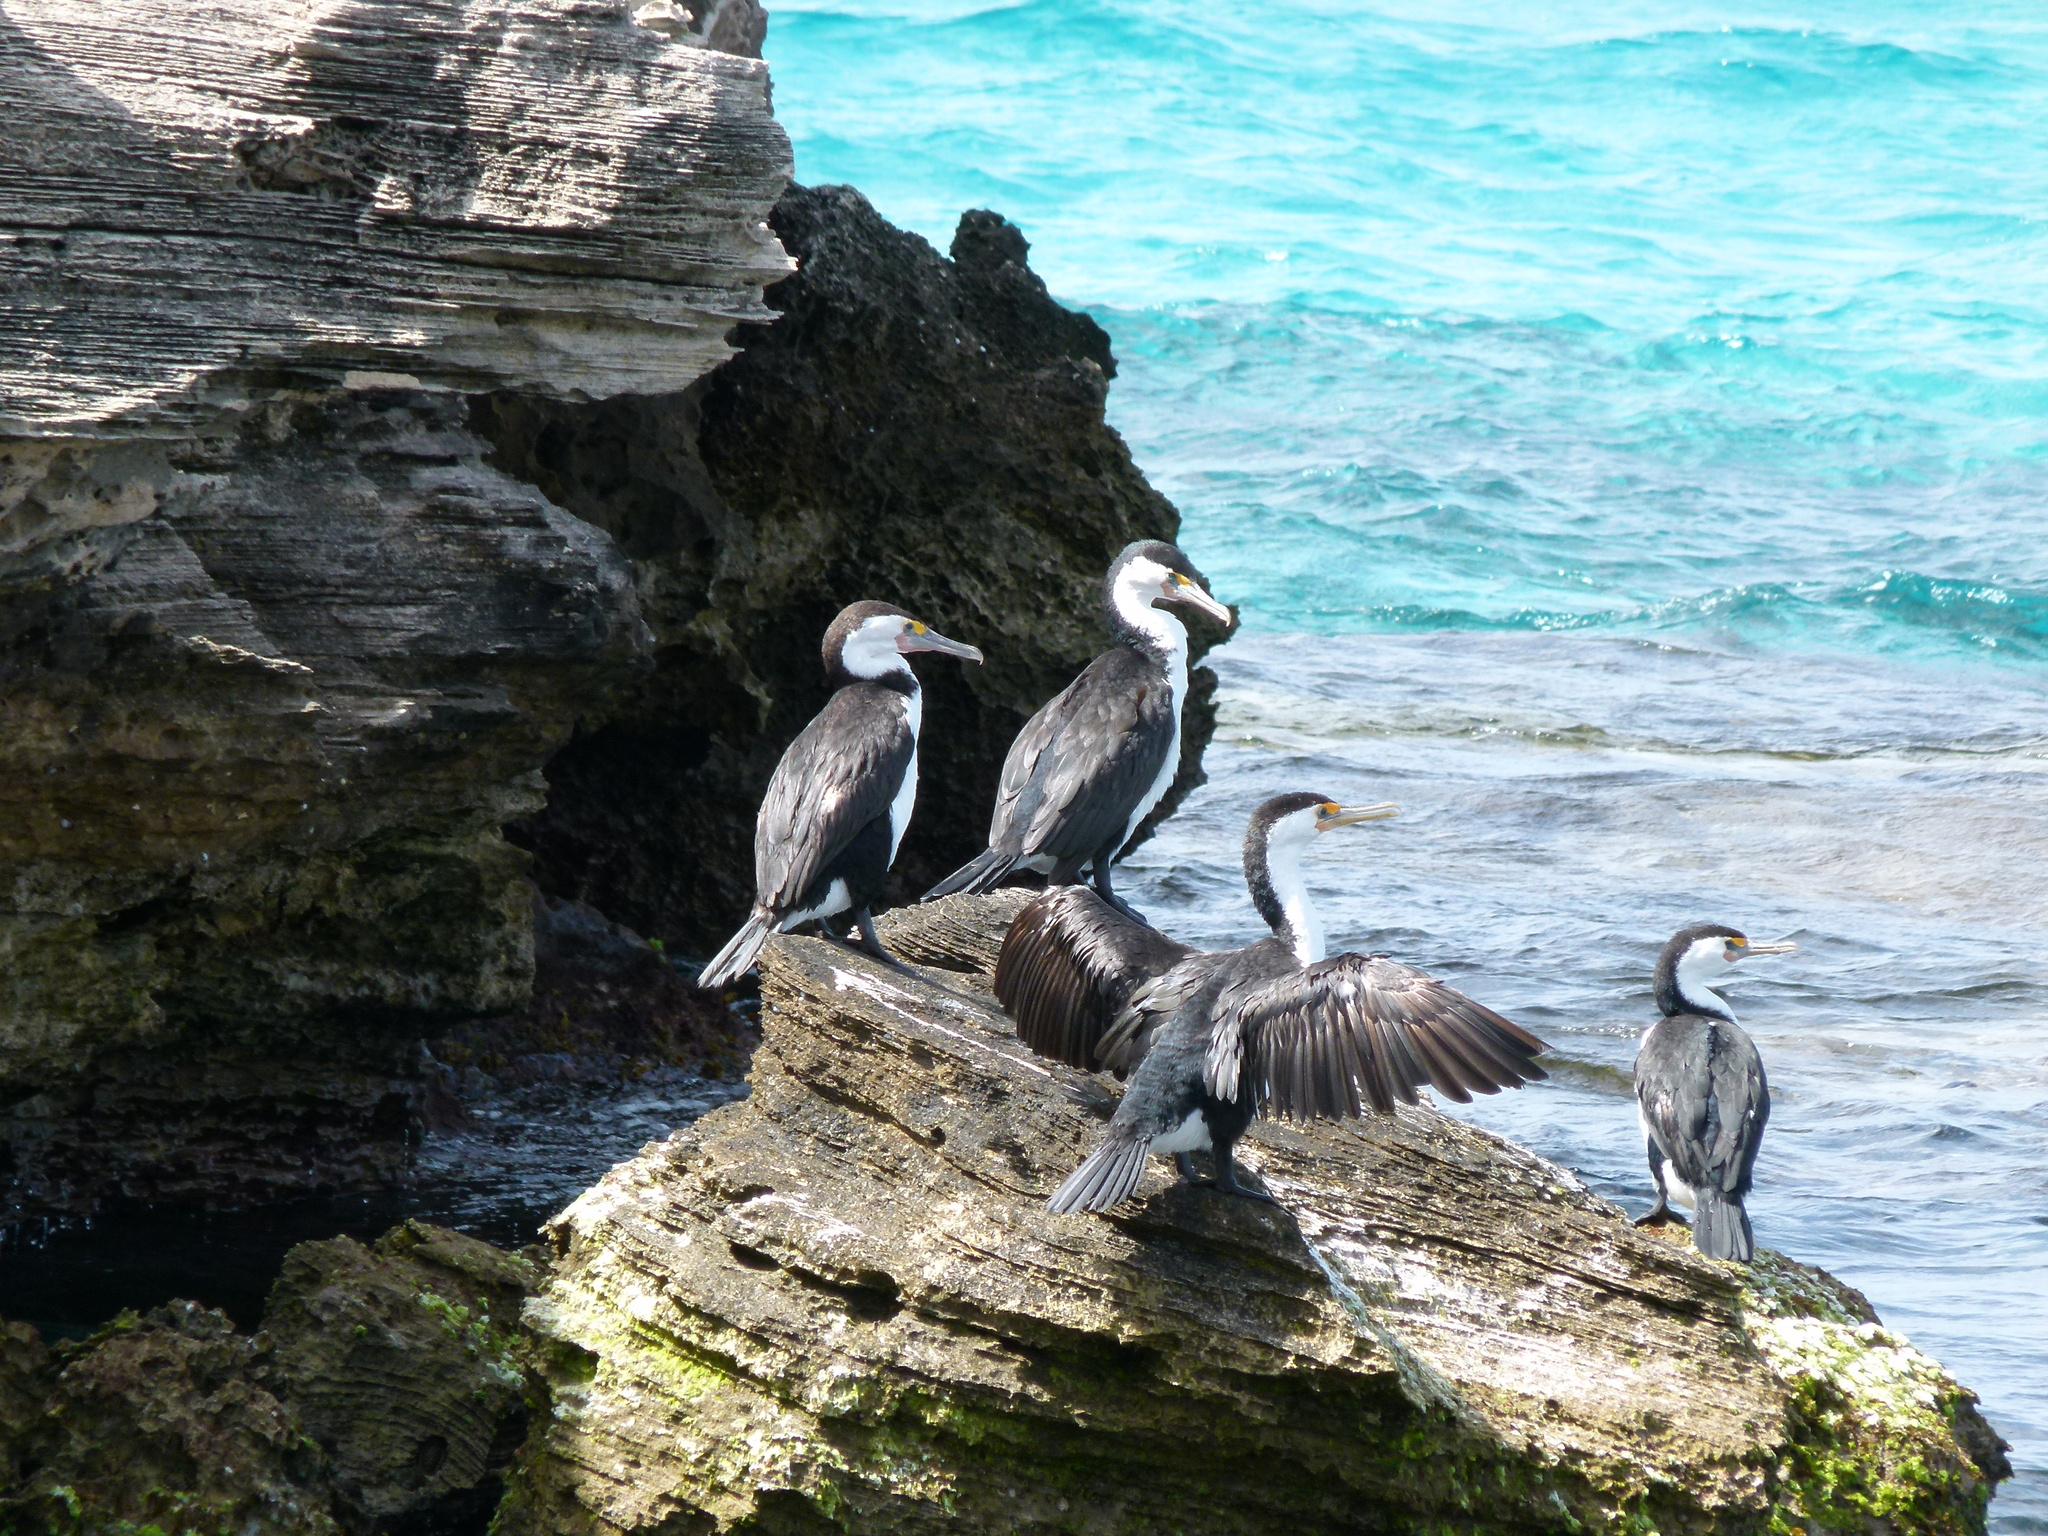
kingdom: Animalia
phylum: Chordata
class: Aves
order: Suliformes
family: Phalacrocoracidae
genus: Phalacrocorax
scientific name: Phalacrocorax varius
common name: Pied cormorant
